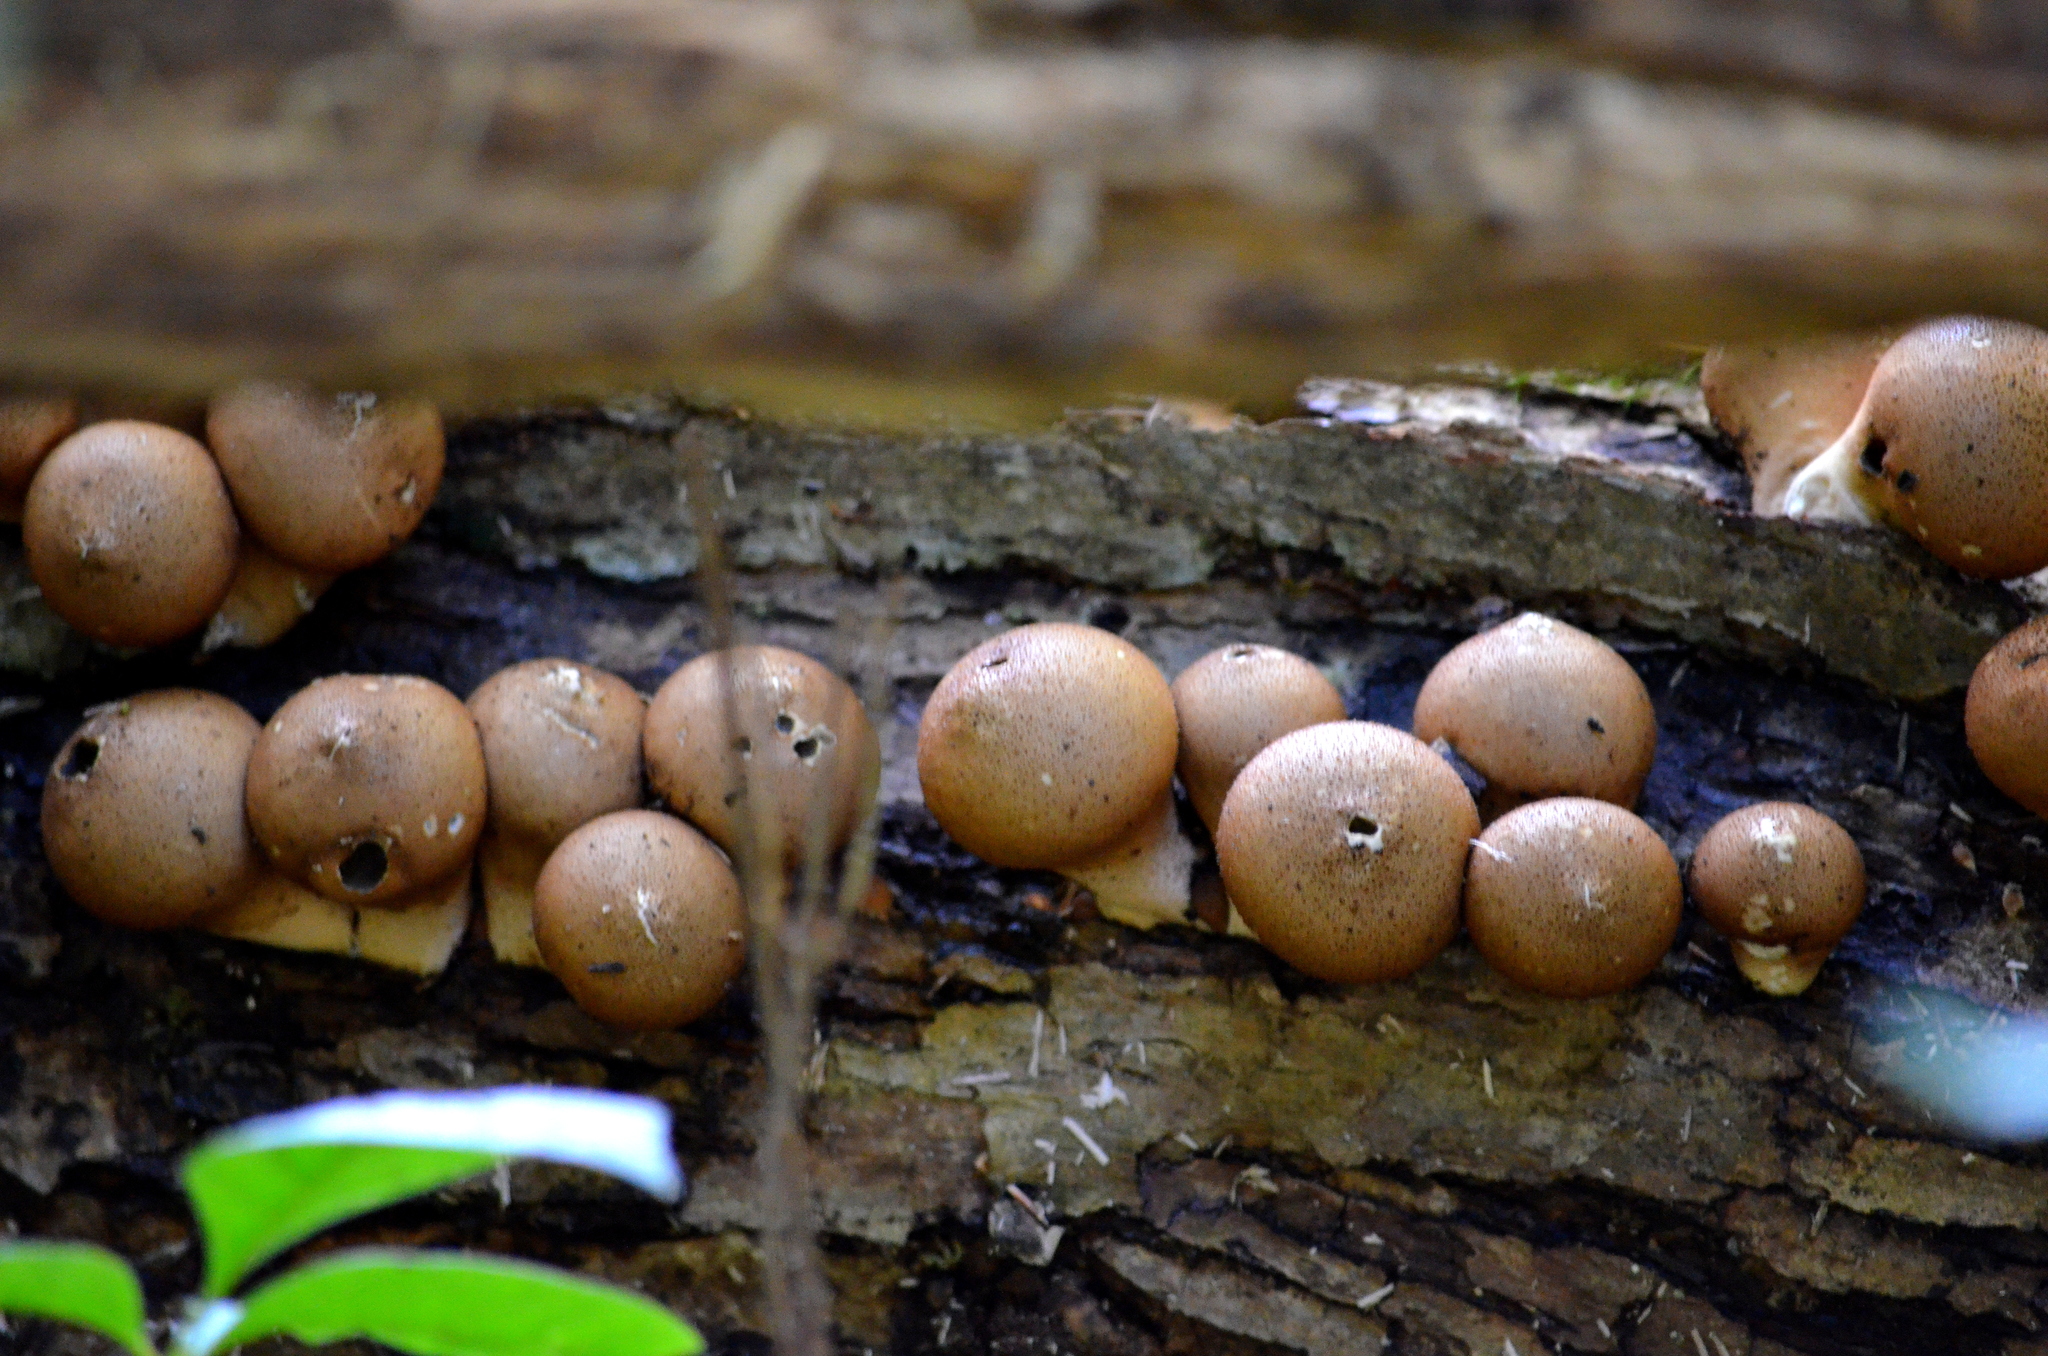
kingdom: Fungi
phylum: Basidiomycota
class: Agaricomycetes
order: Agaricales
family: Lycoperdaceae
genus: Apioperdon
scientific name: Apioperdon pyriforme
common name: Pear-shaped puffball
